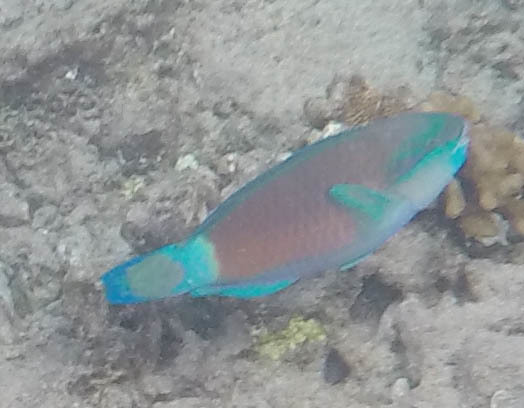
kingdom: Animalia
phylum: Chordata
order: Perciformes
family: Scaridae
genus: Chlorurus
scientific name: Chlorurus spilurus
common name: Bullethead parrotfish
